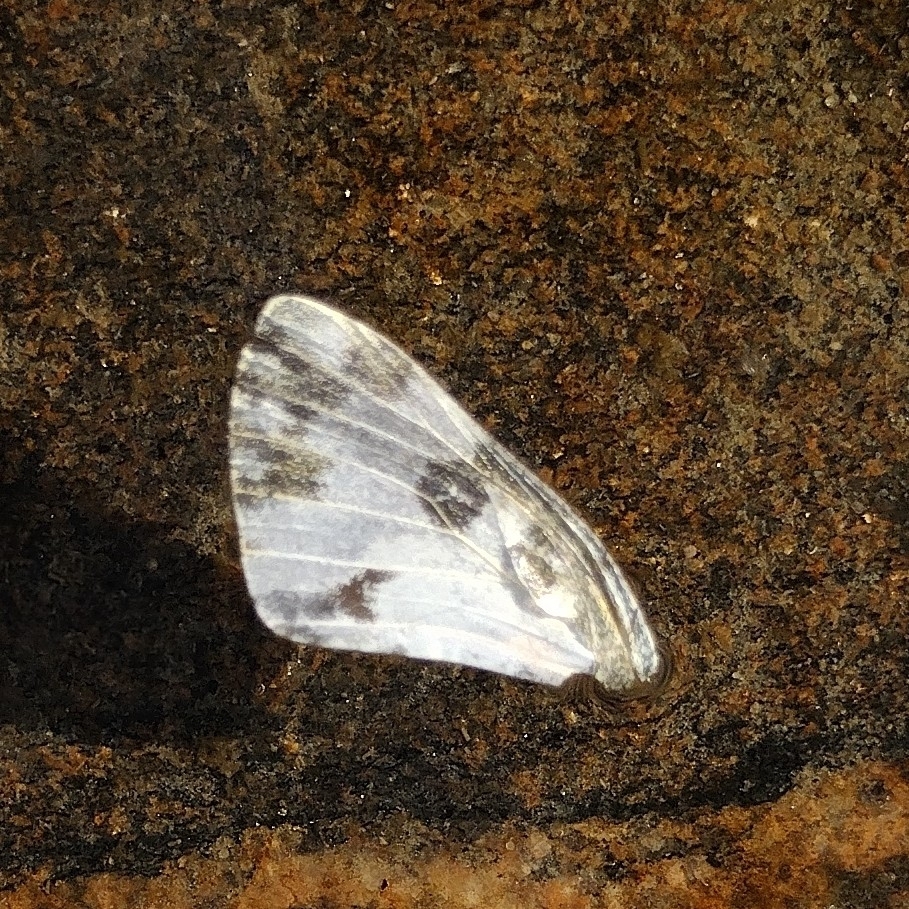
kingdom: Animalia
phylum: Arthropoda
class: Insecta
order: Lepidoptera
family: Pieridae
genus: Pontia
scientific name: Pontia edusa
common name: Eastern bath white
